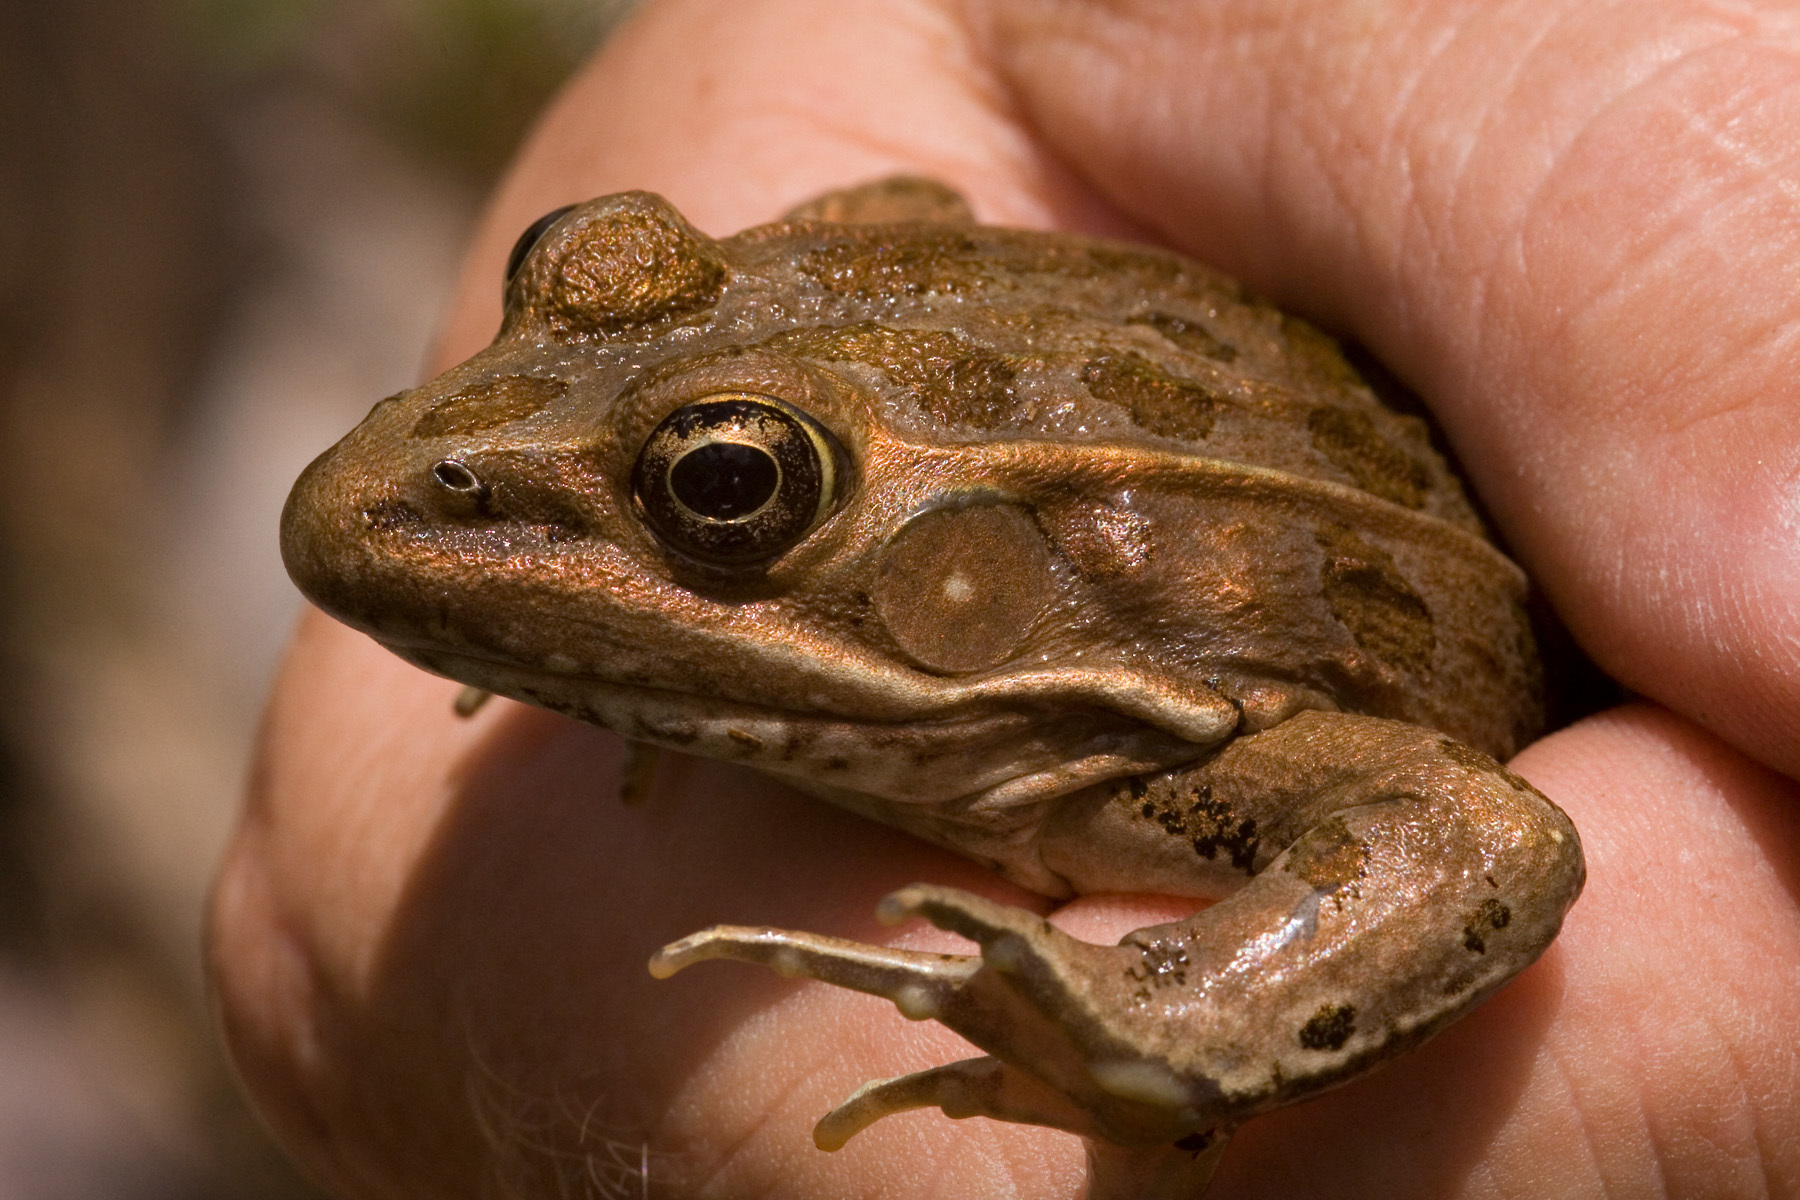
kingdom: Animalia
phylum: Chordata
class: Amphibia
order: Anura
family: Ranidae
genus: Lithobates
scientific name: Lithobates blairi
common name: Plains leopard frog
